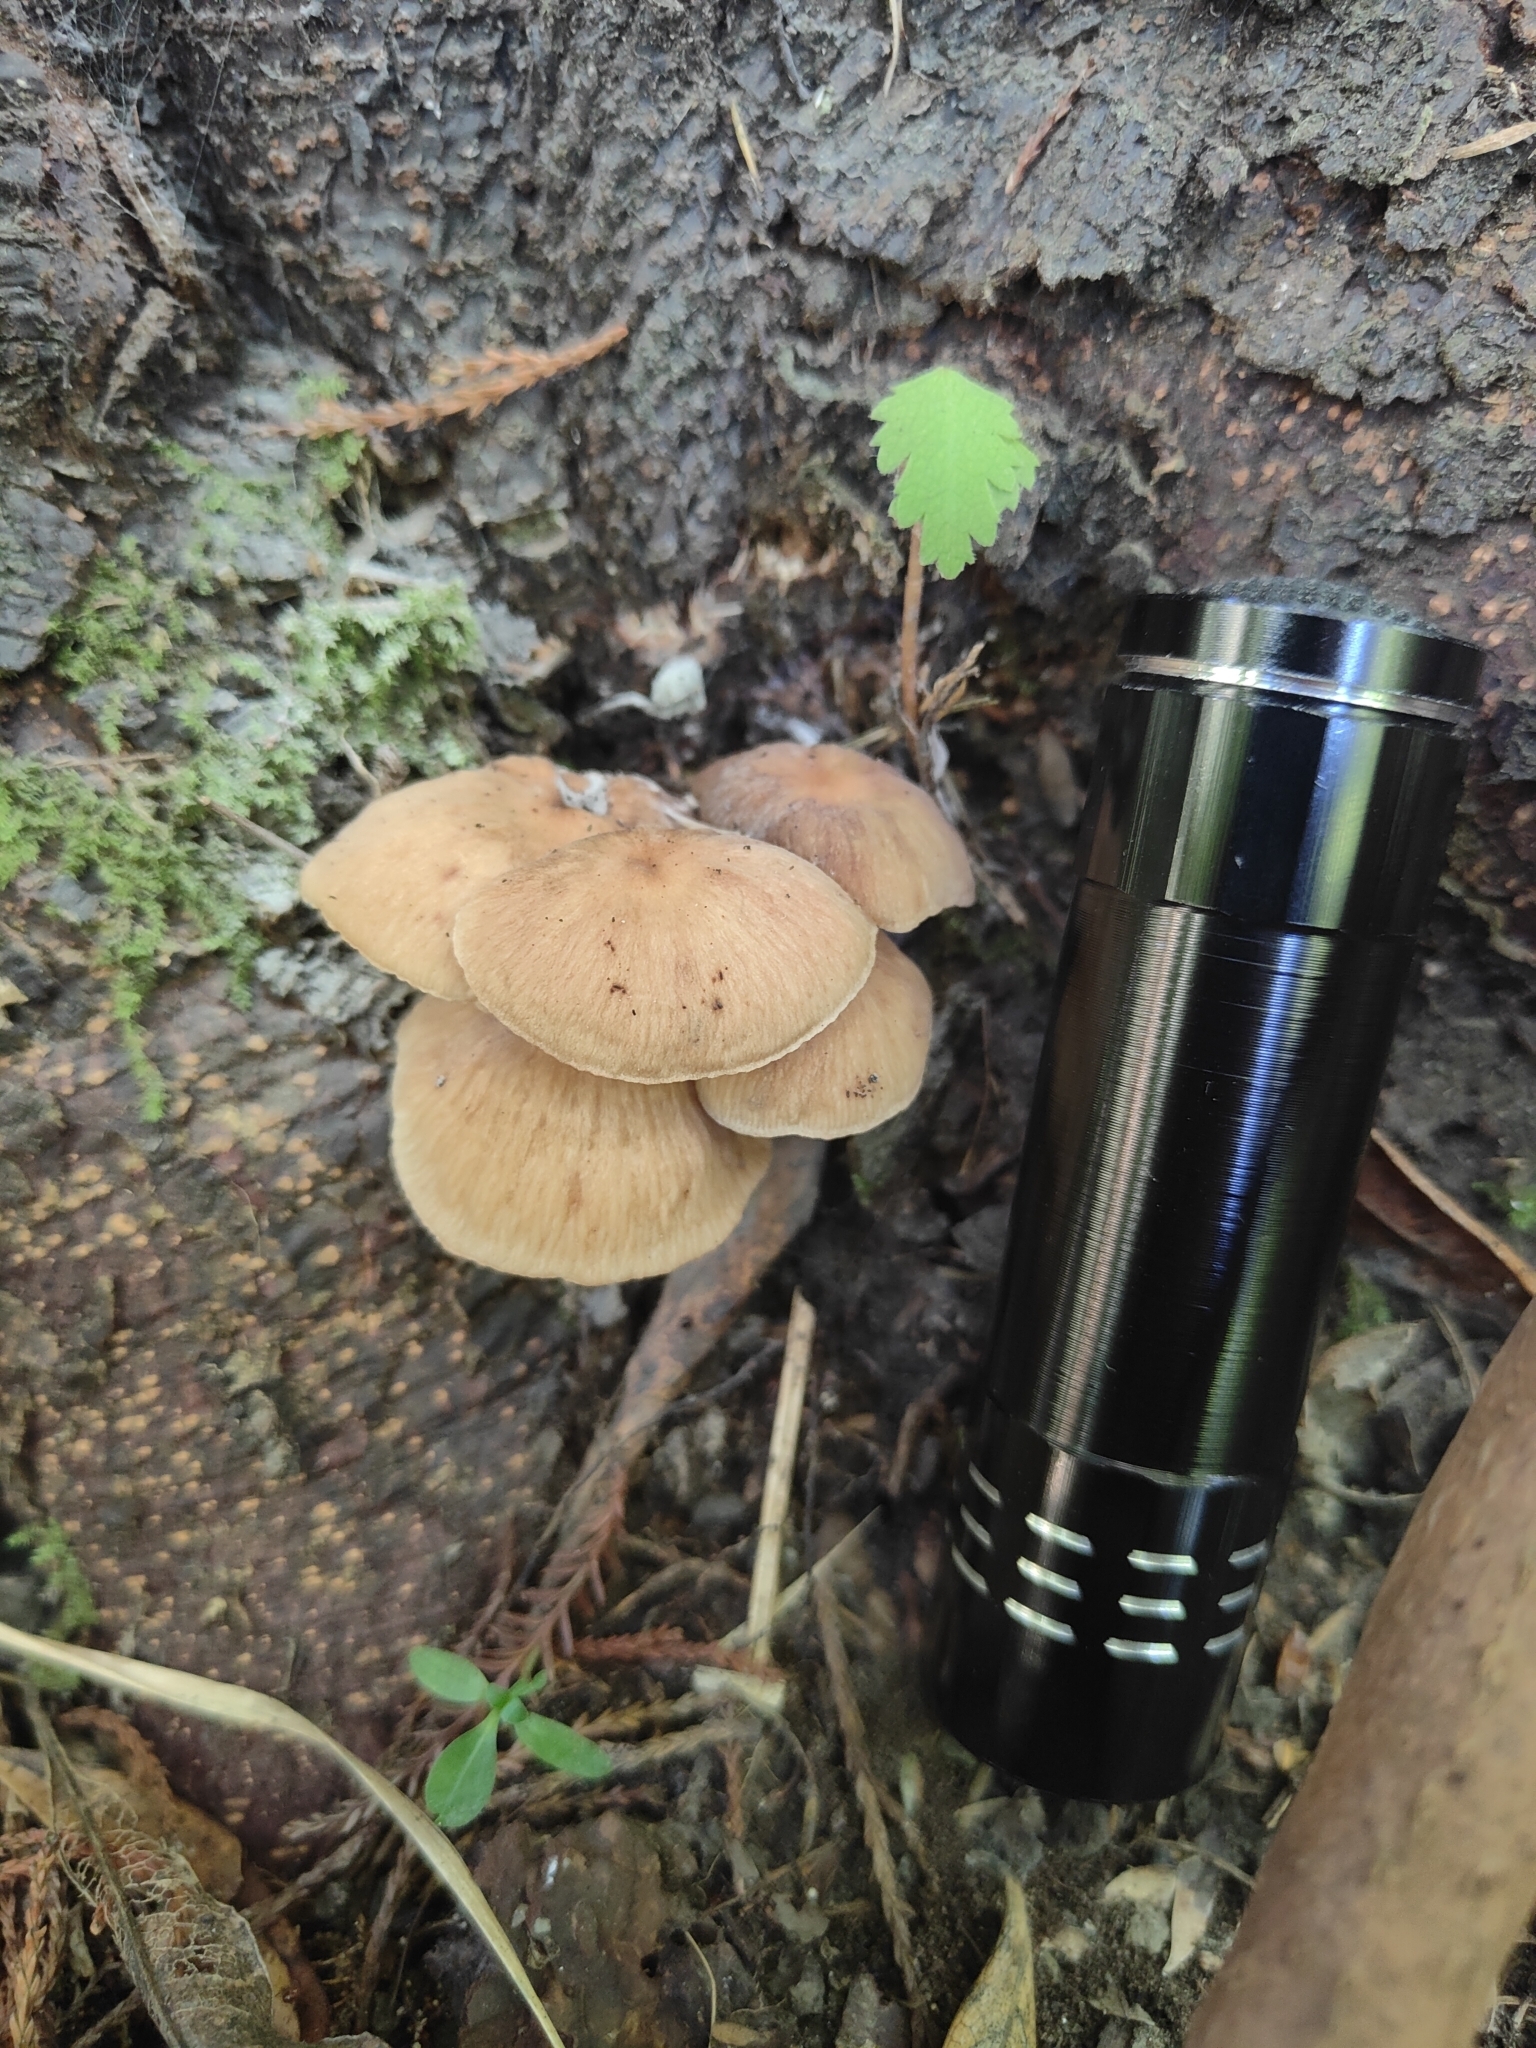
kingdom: Fungi
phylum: Basidiomycota
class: Agaricomycetes
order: Agaricales
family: Omphalotaceae
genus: Collybiopsis
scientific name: Collybiopsis subpruinosa
